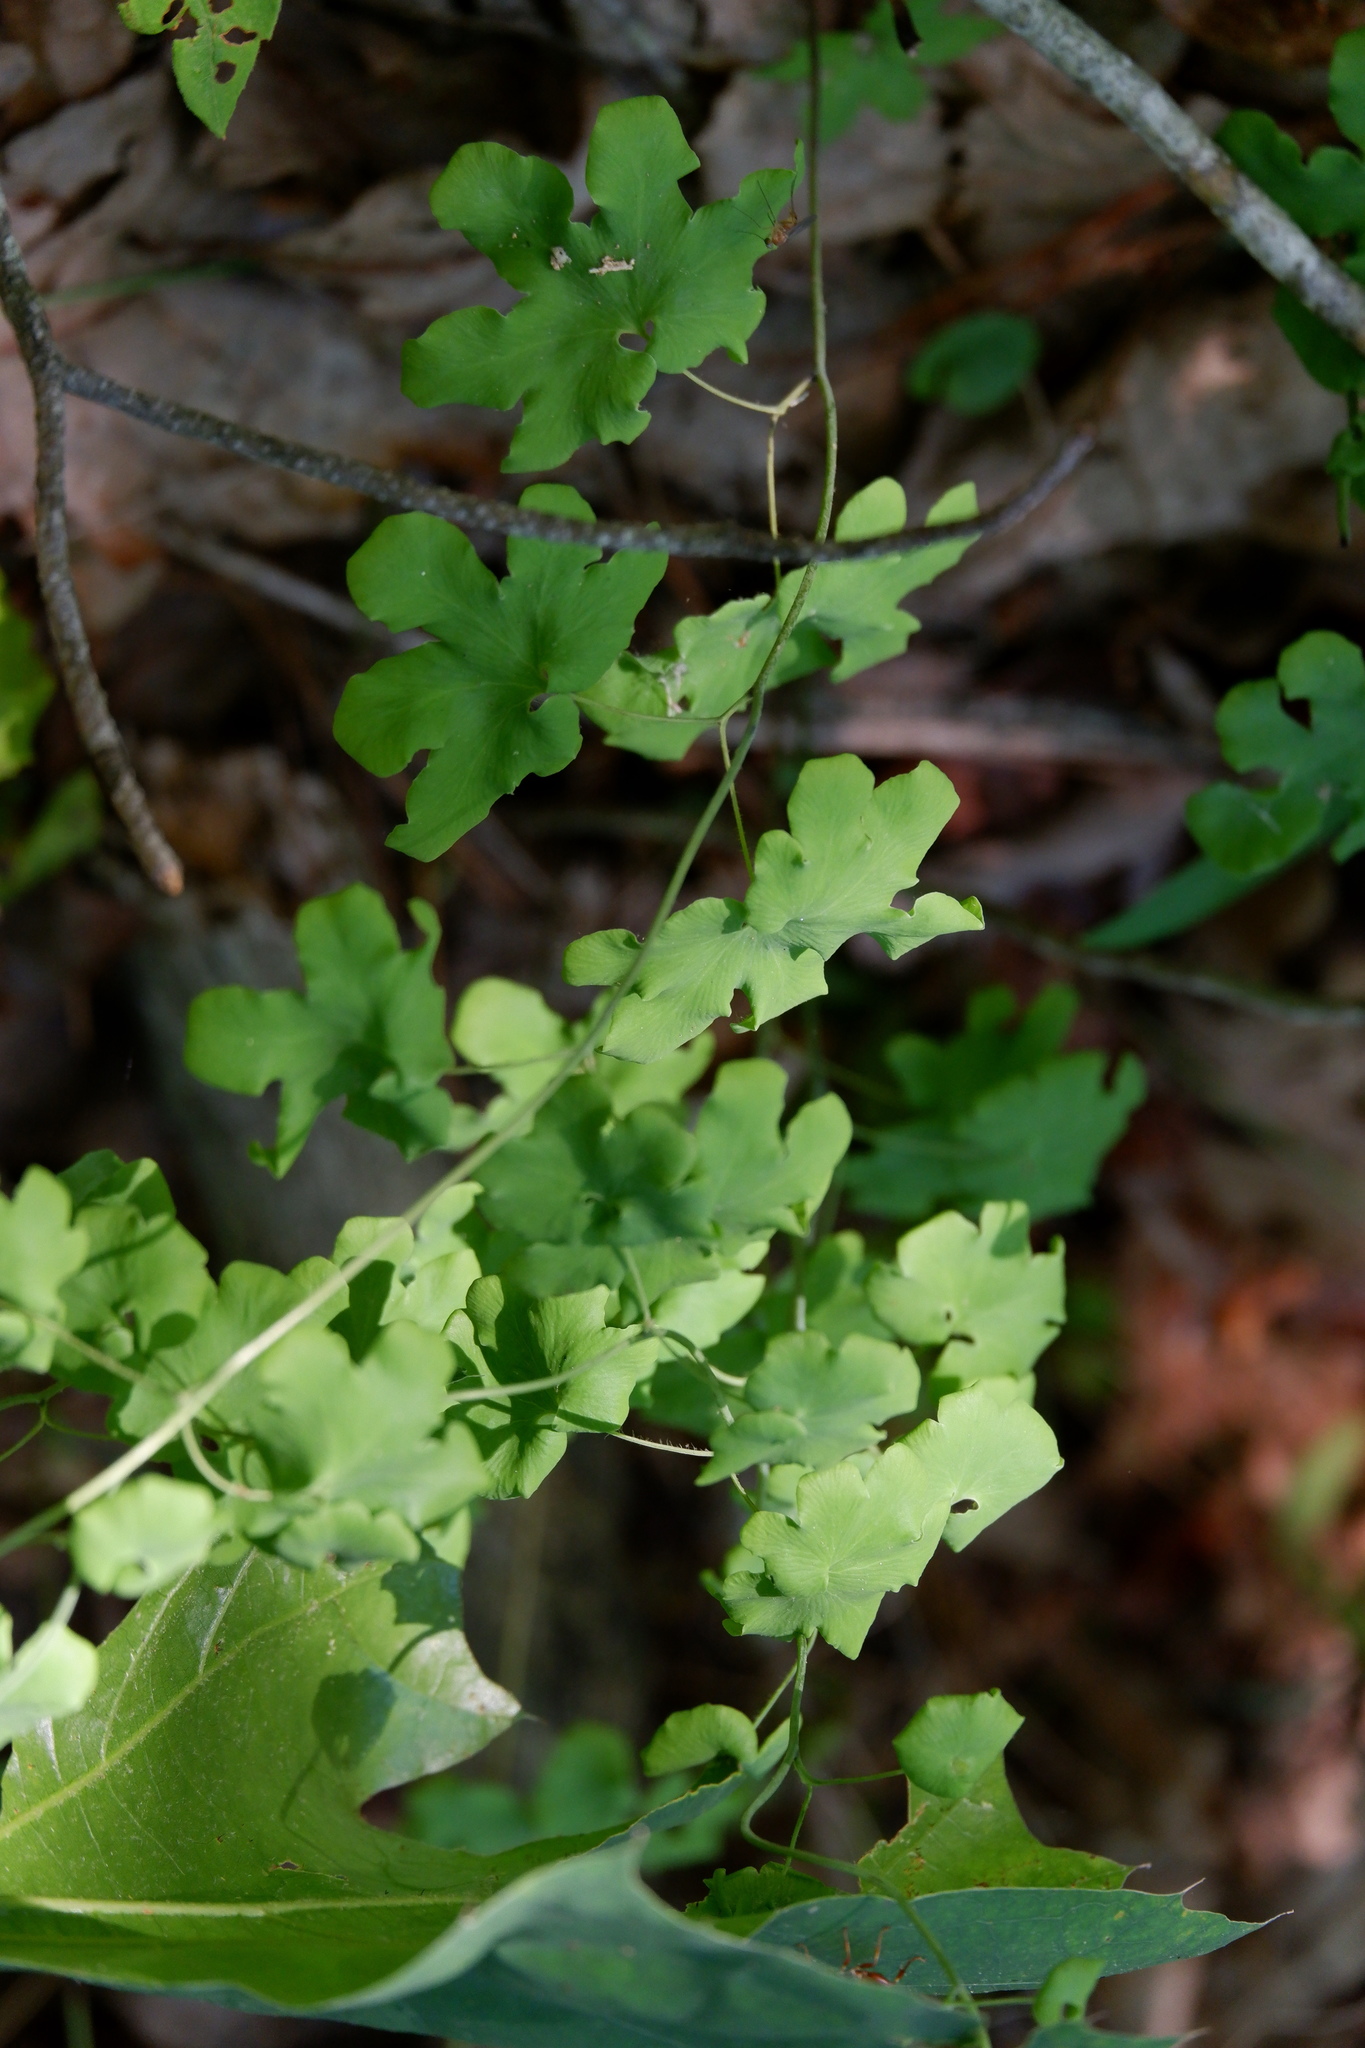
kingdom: Plantae
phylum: Tracheophyta
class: Polypodiopsida
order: Schizaeales
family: Lygodiaceae
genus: Lygodium
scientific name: Lygodium palmatum
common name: American climbing fern
